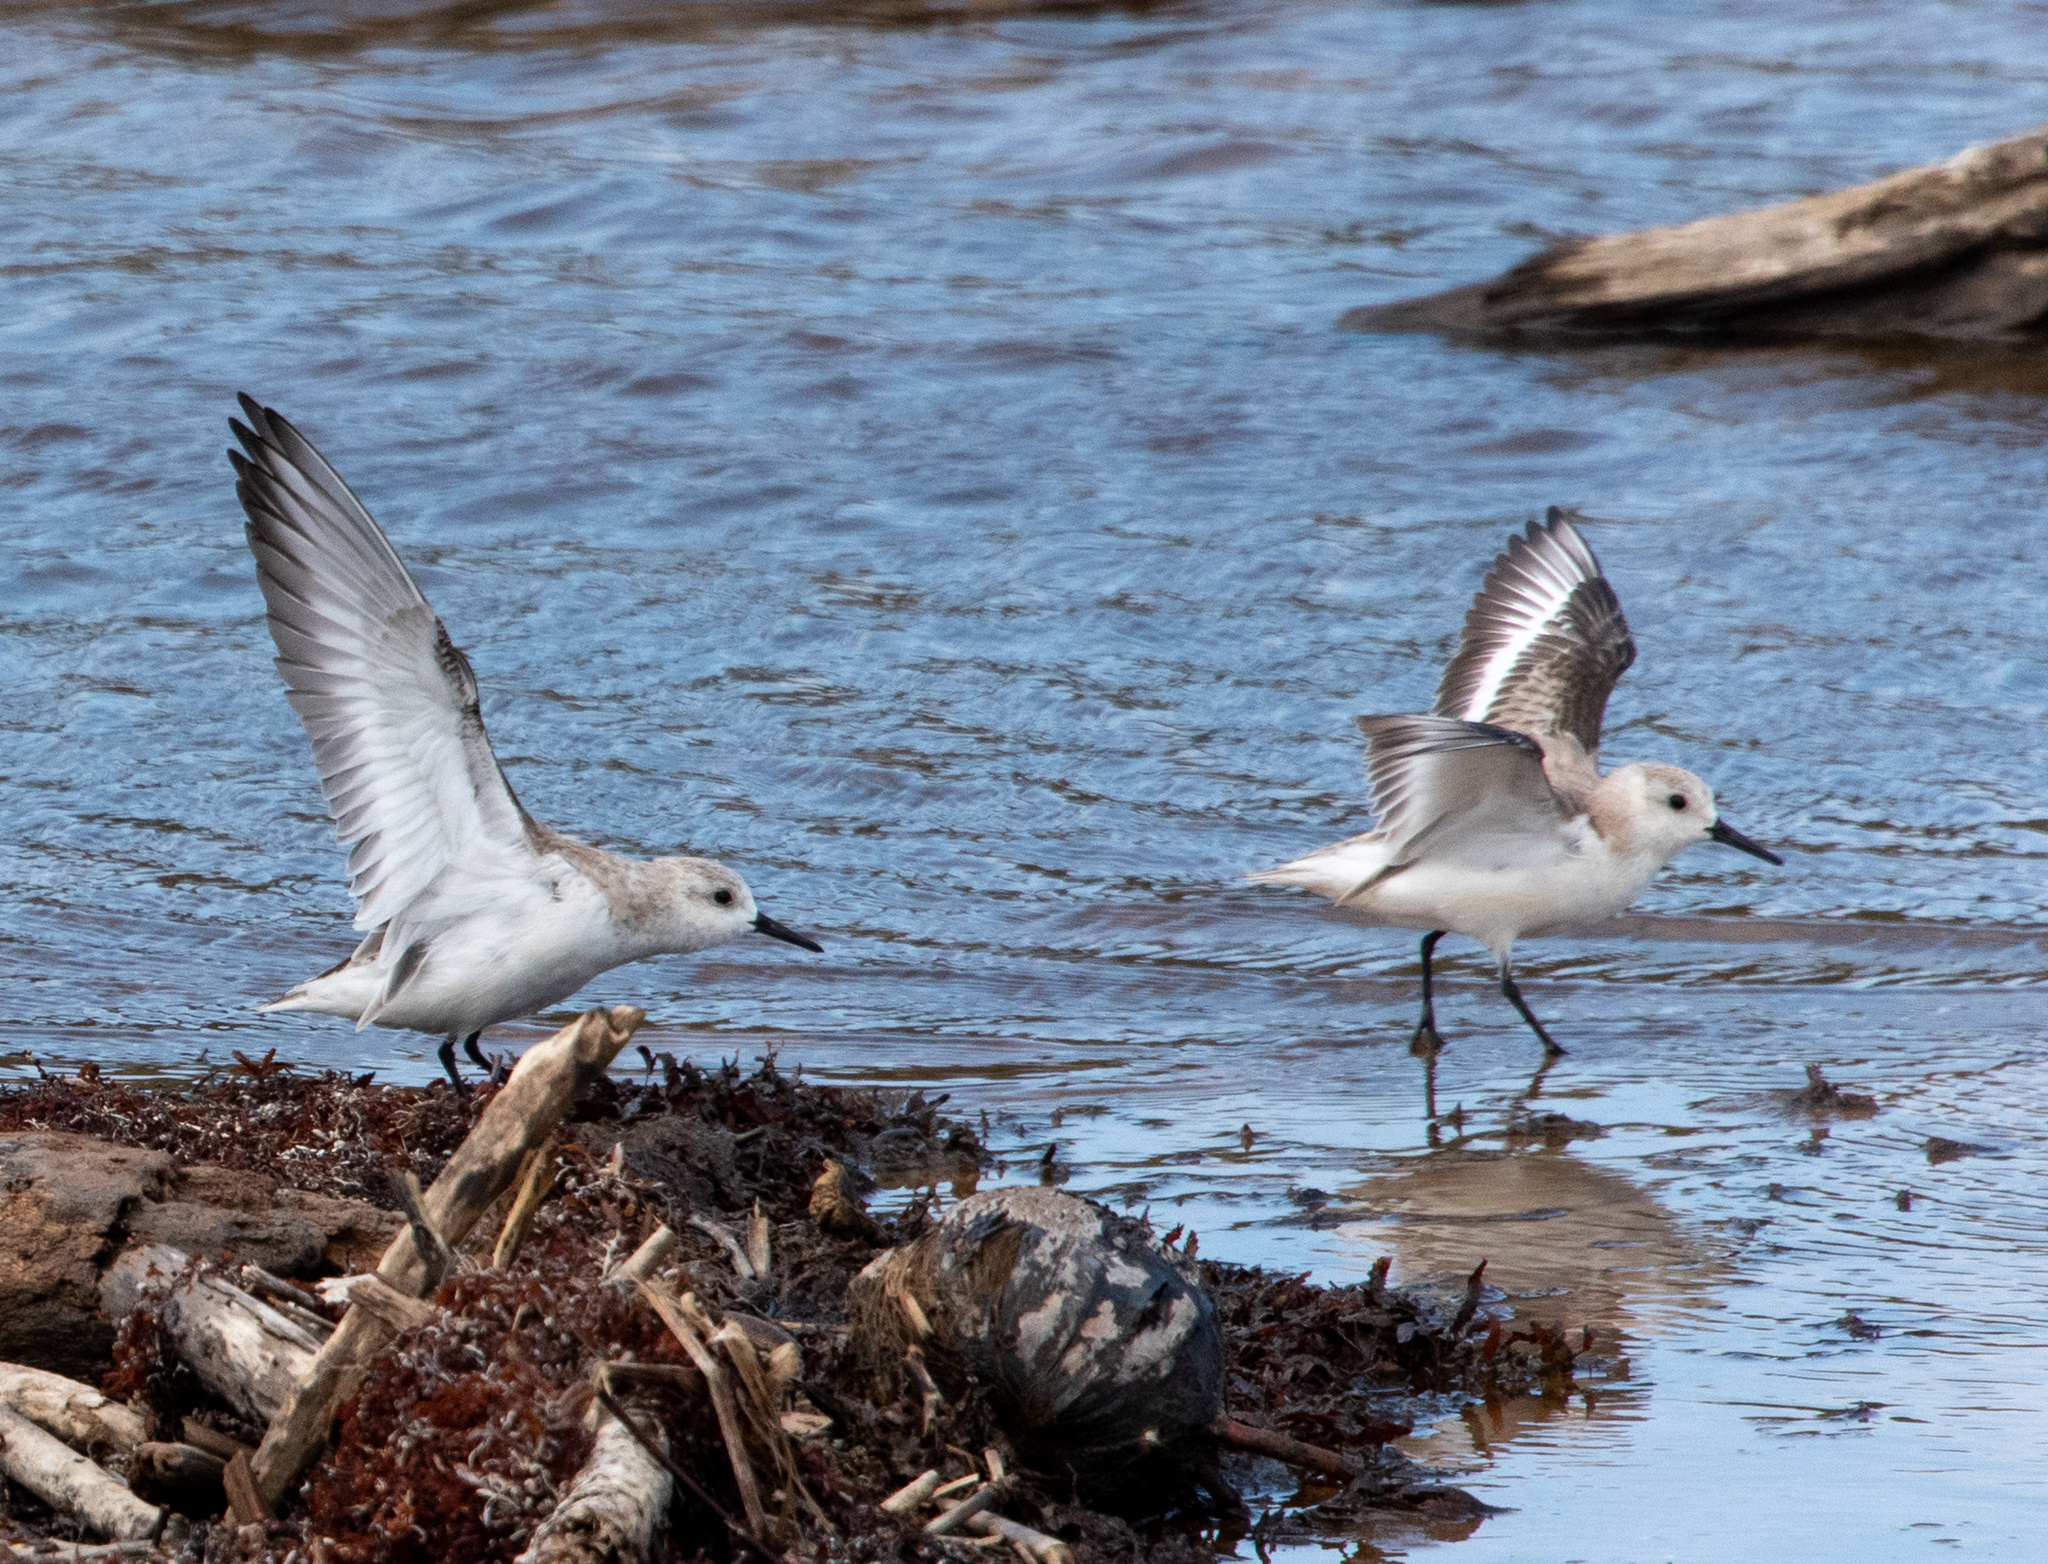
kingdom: Animalia
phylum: Chordata
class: Aves
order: Charadriiformes
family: Scolopacidae
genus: Calidris
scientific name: Calidris alba
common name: Sanderling
